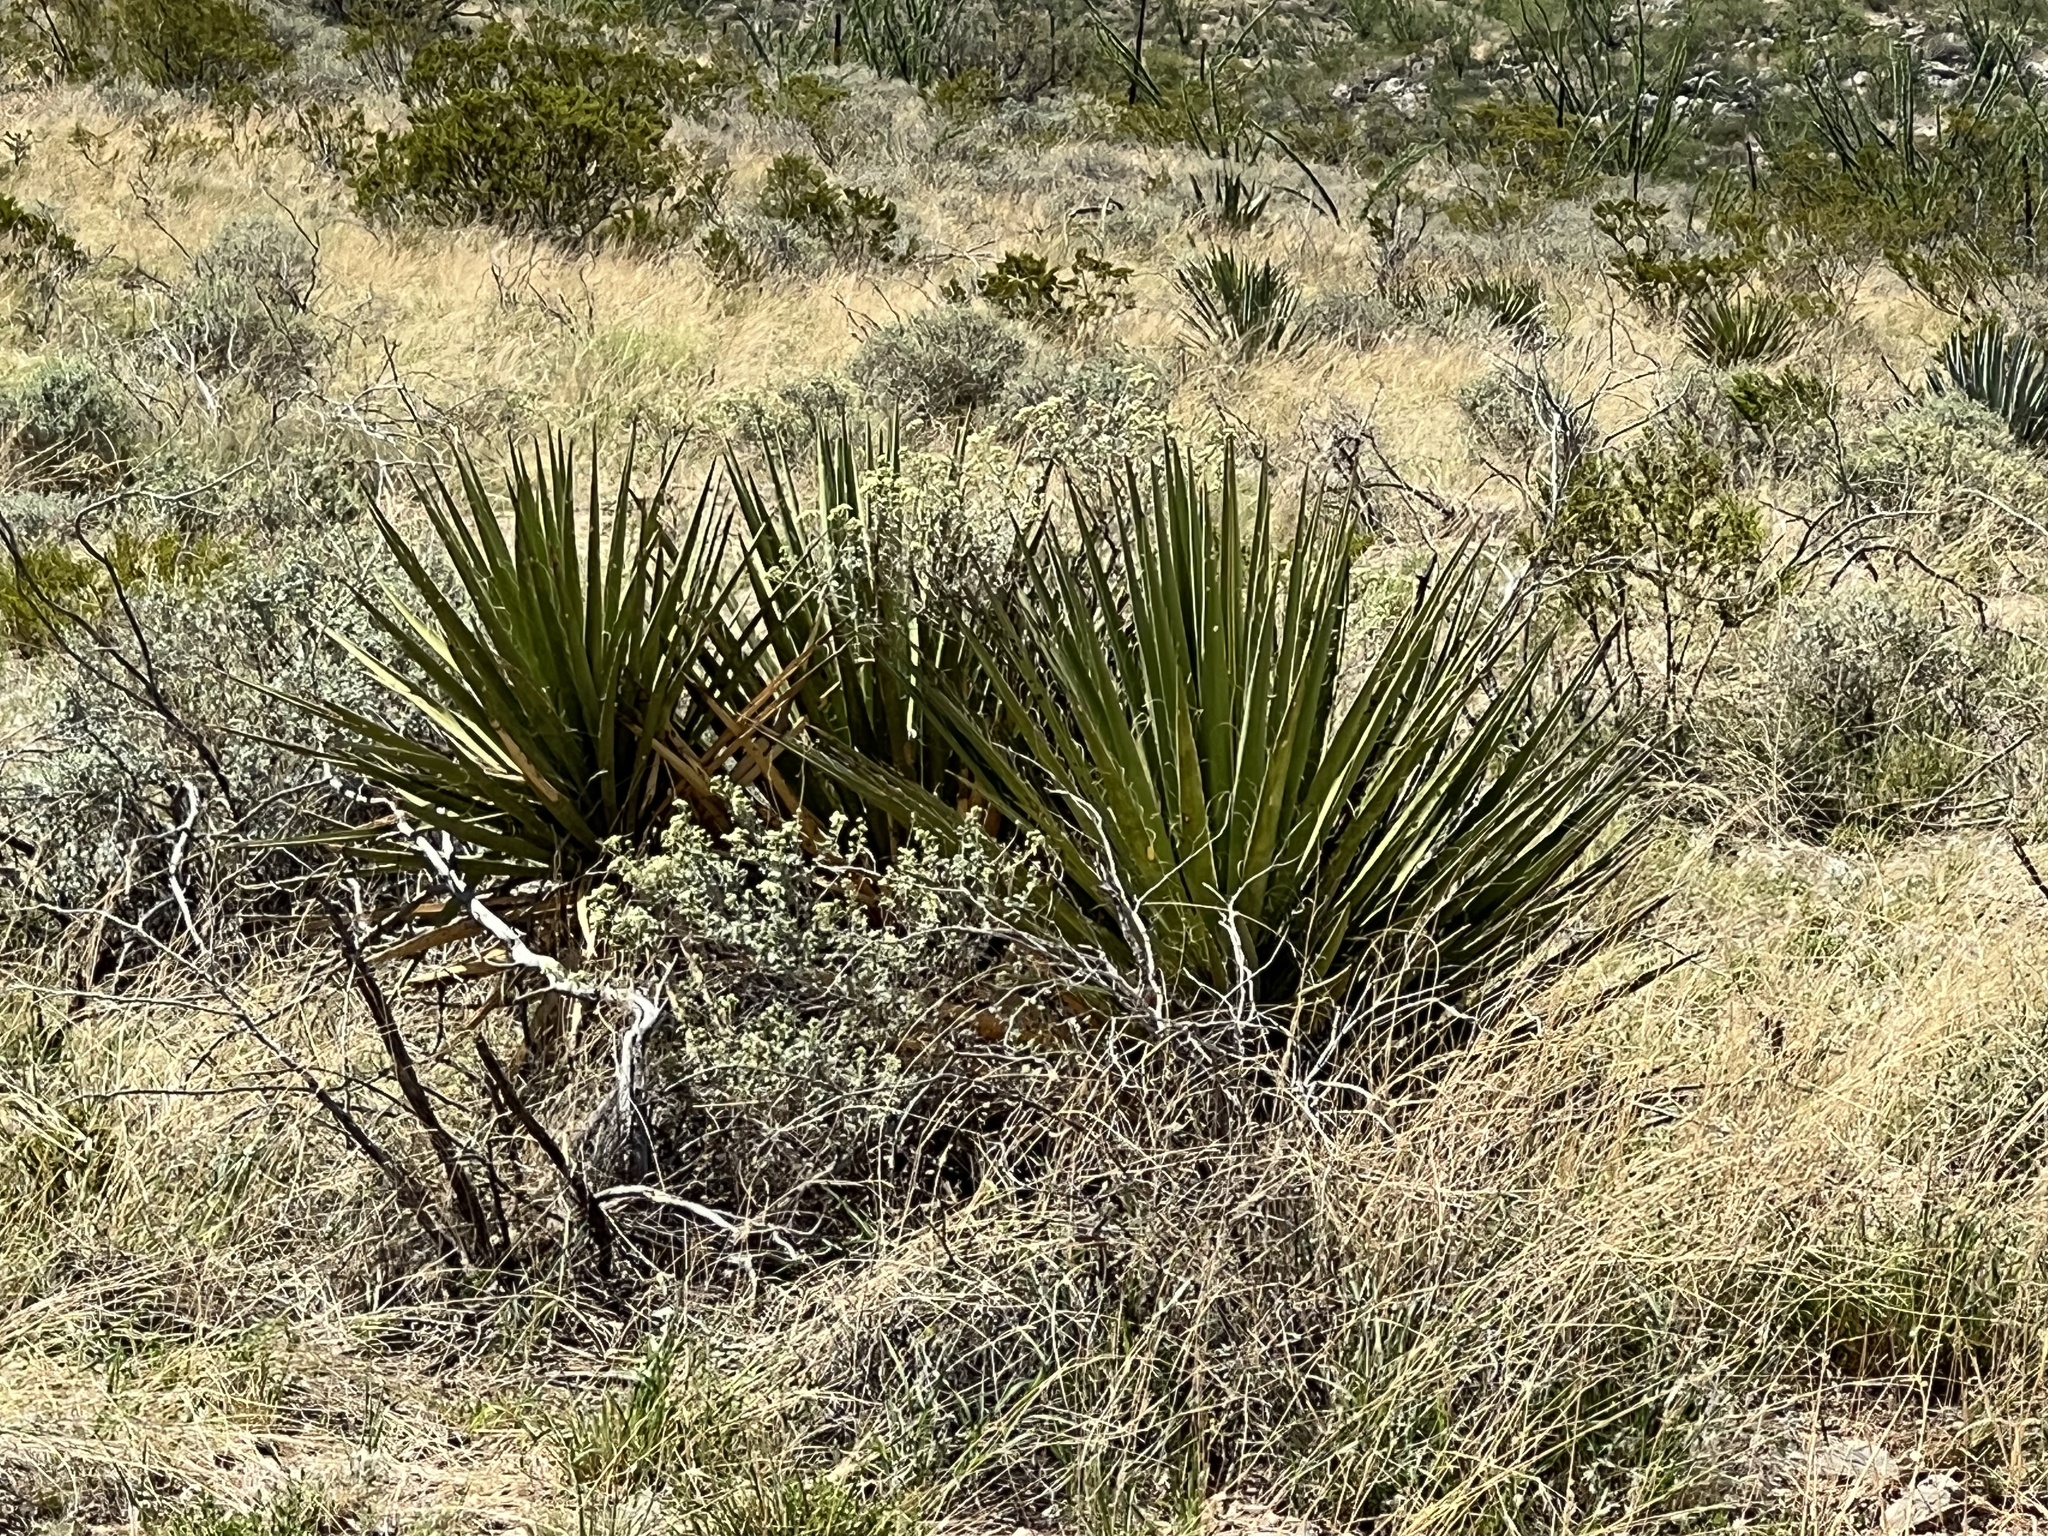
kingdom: Plantae
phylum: Tracheophyta
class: Liliopsida
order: Asparagales
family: Asparagaceae
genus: Agave
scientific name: Agave palmeri
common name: Palmer agave
